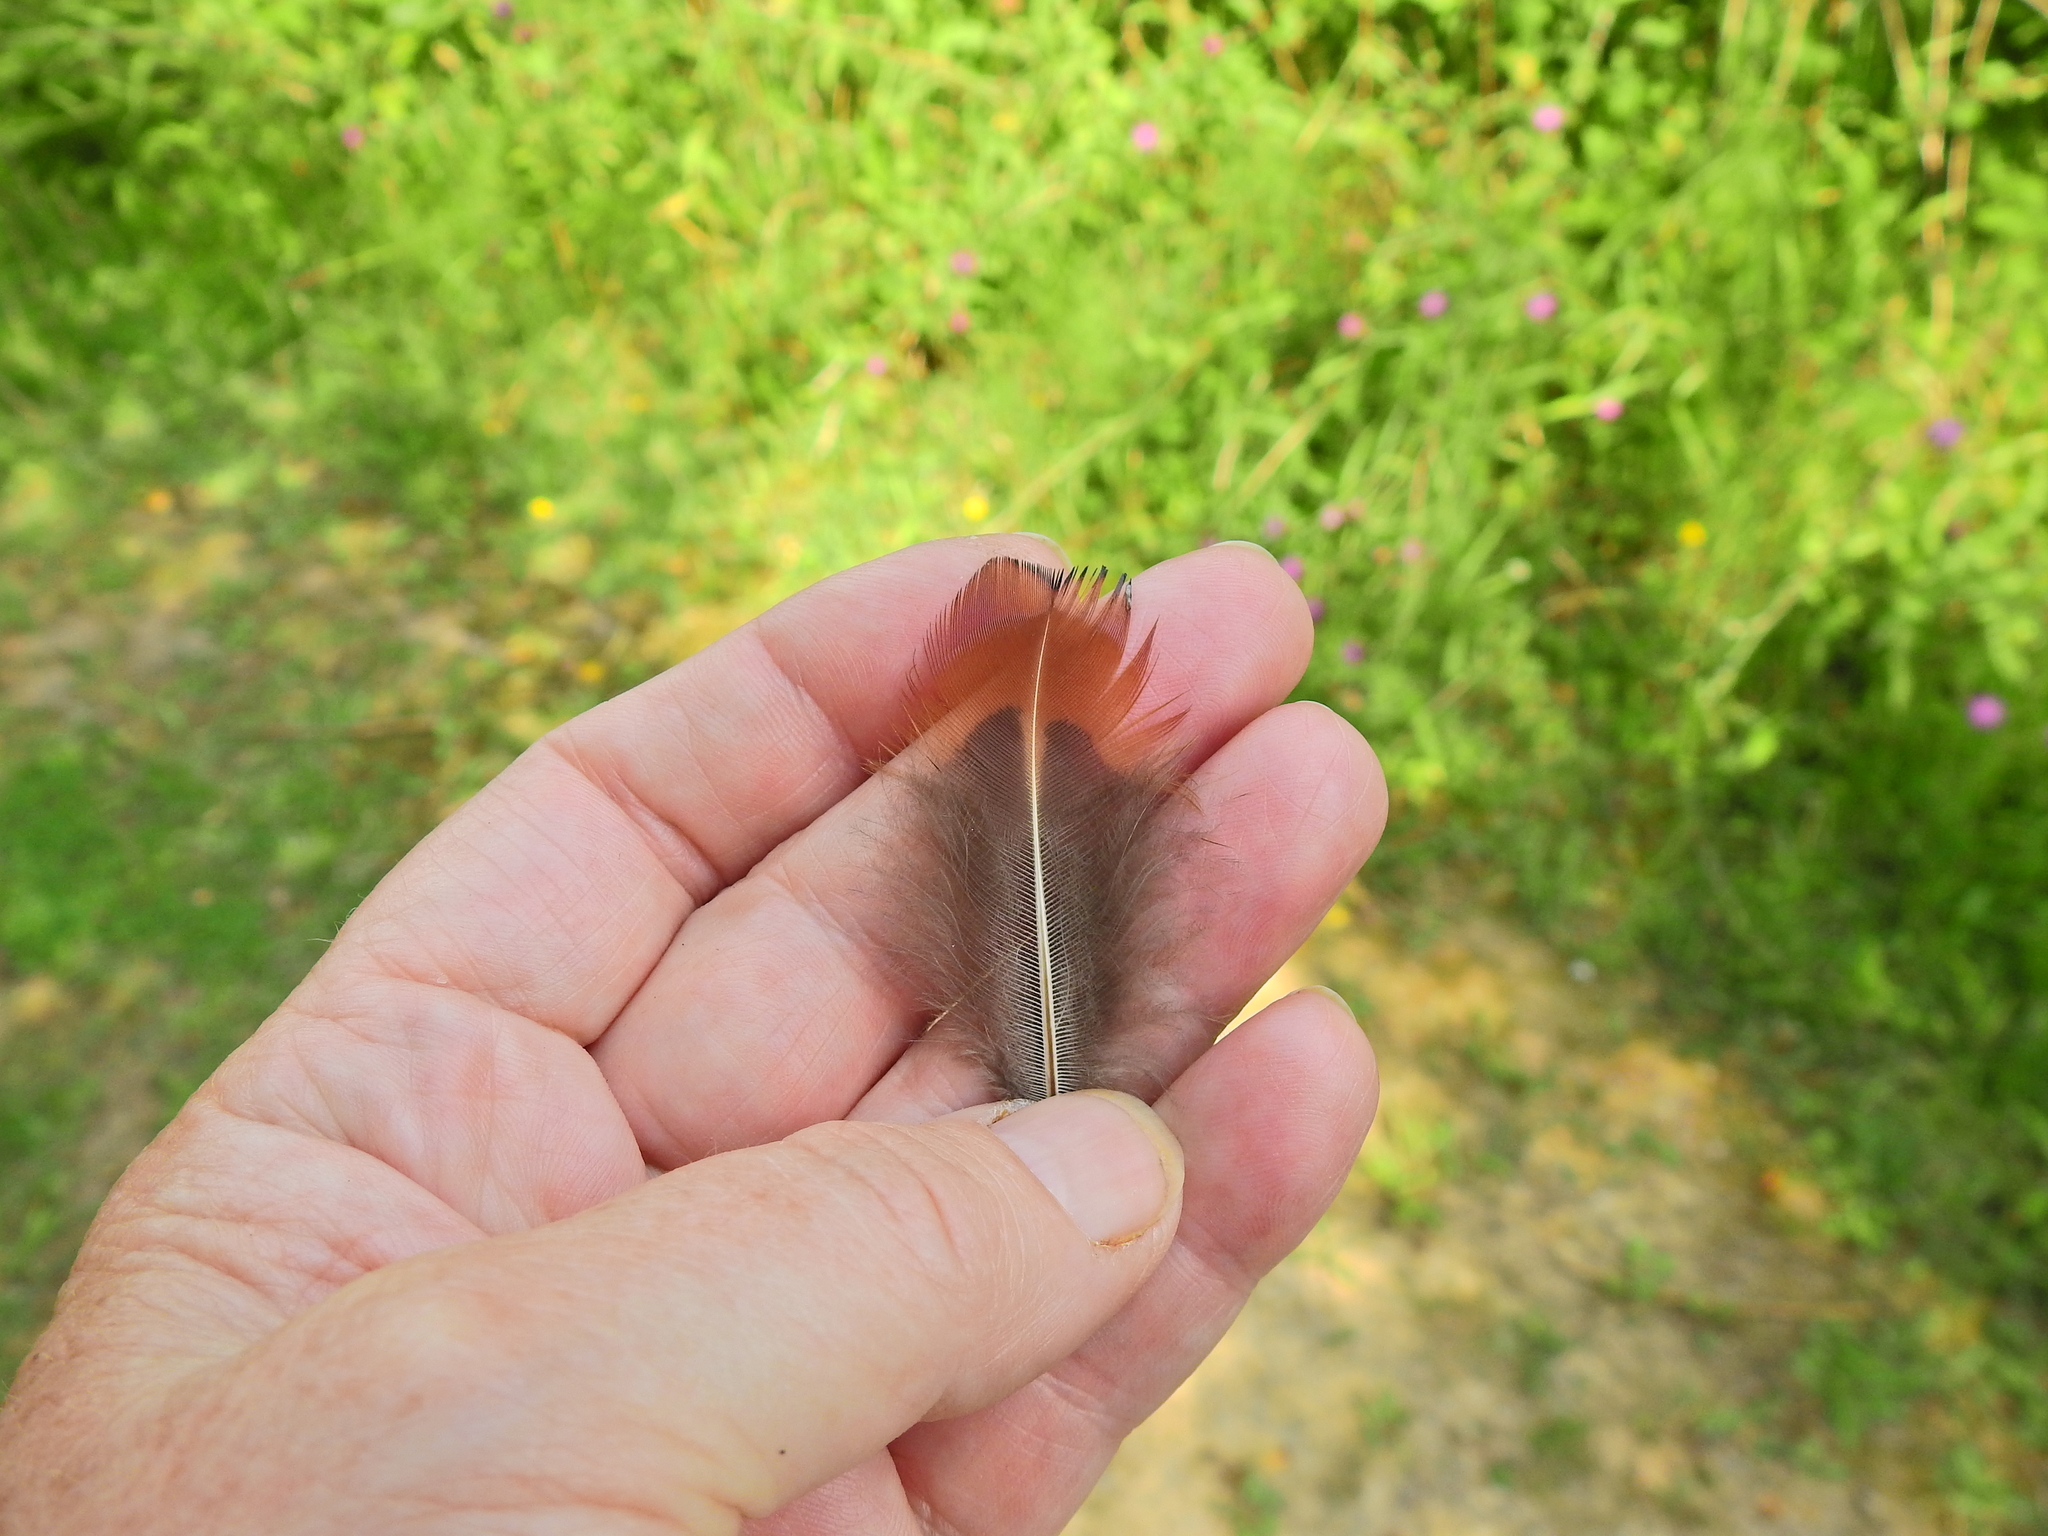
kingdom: Animalia
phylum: Chordata
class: Aves
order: Galliformes
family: Phasianidae
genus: Phasianus
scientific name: Phasianus colchicus
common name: Common pheasant
